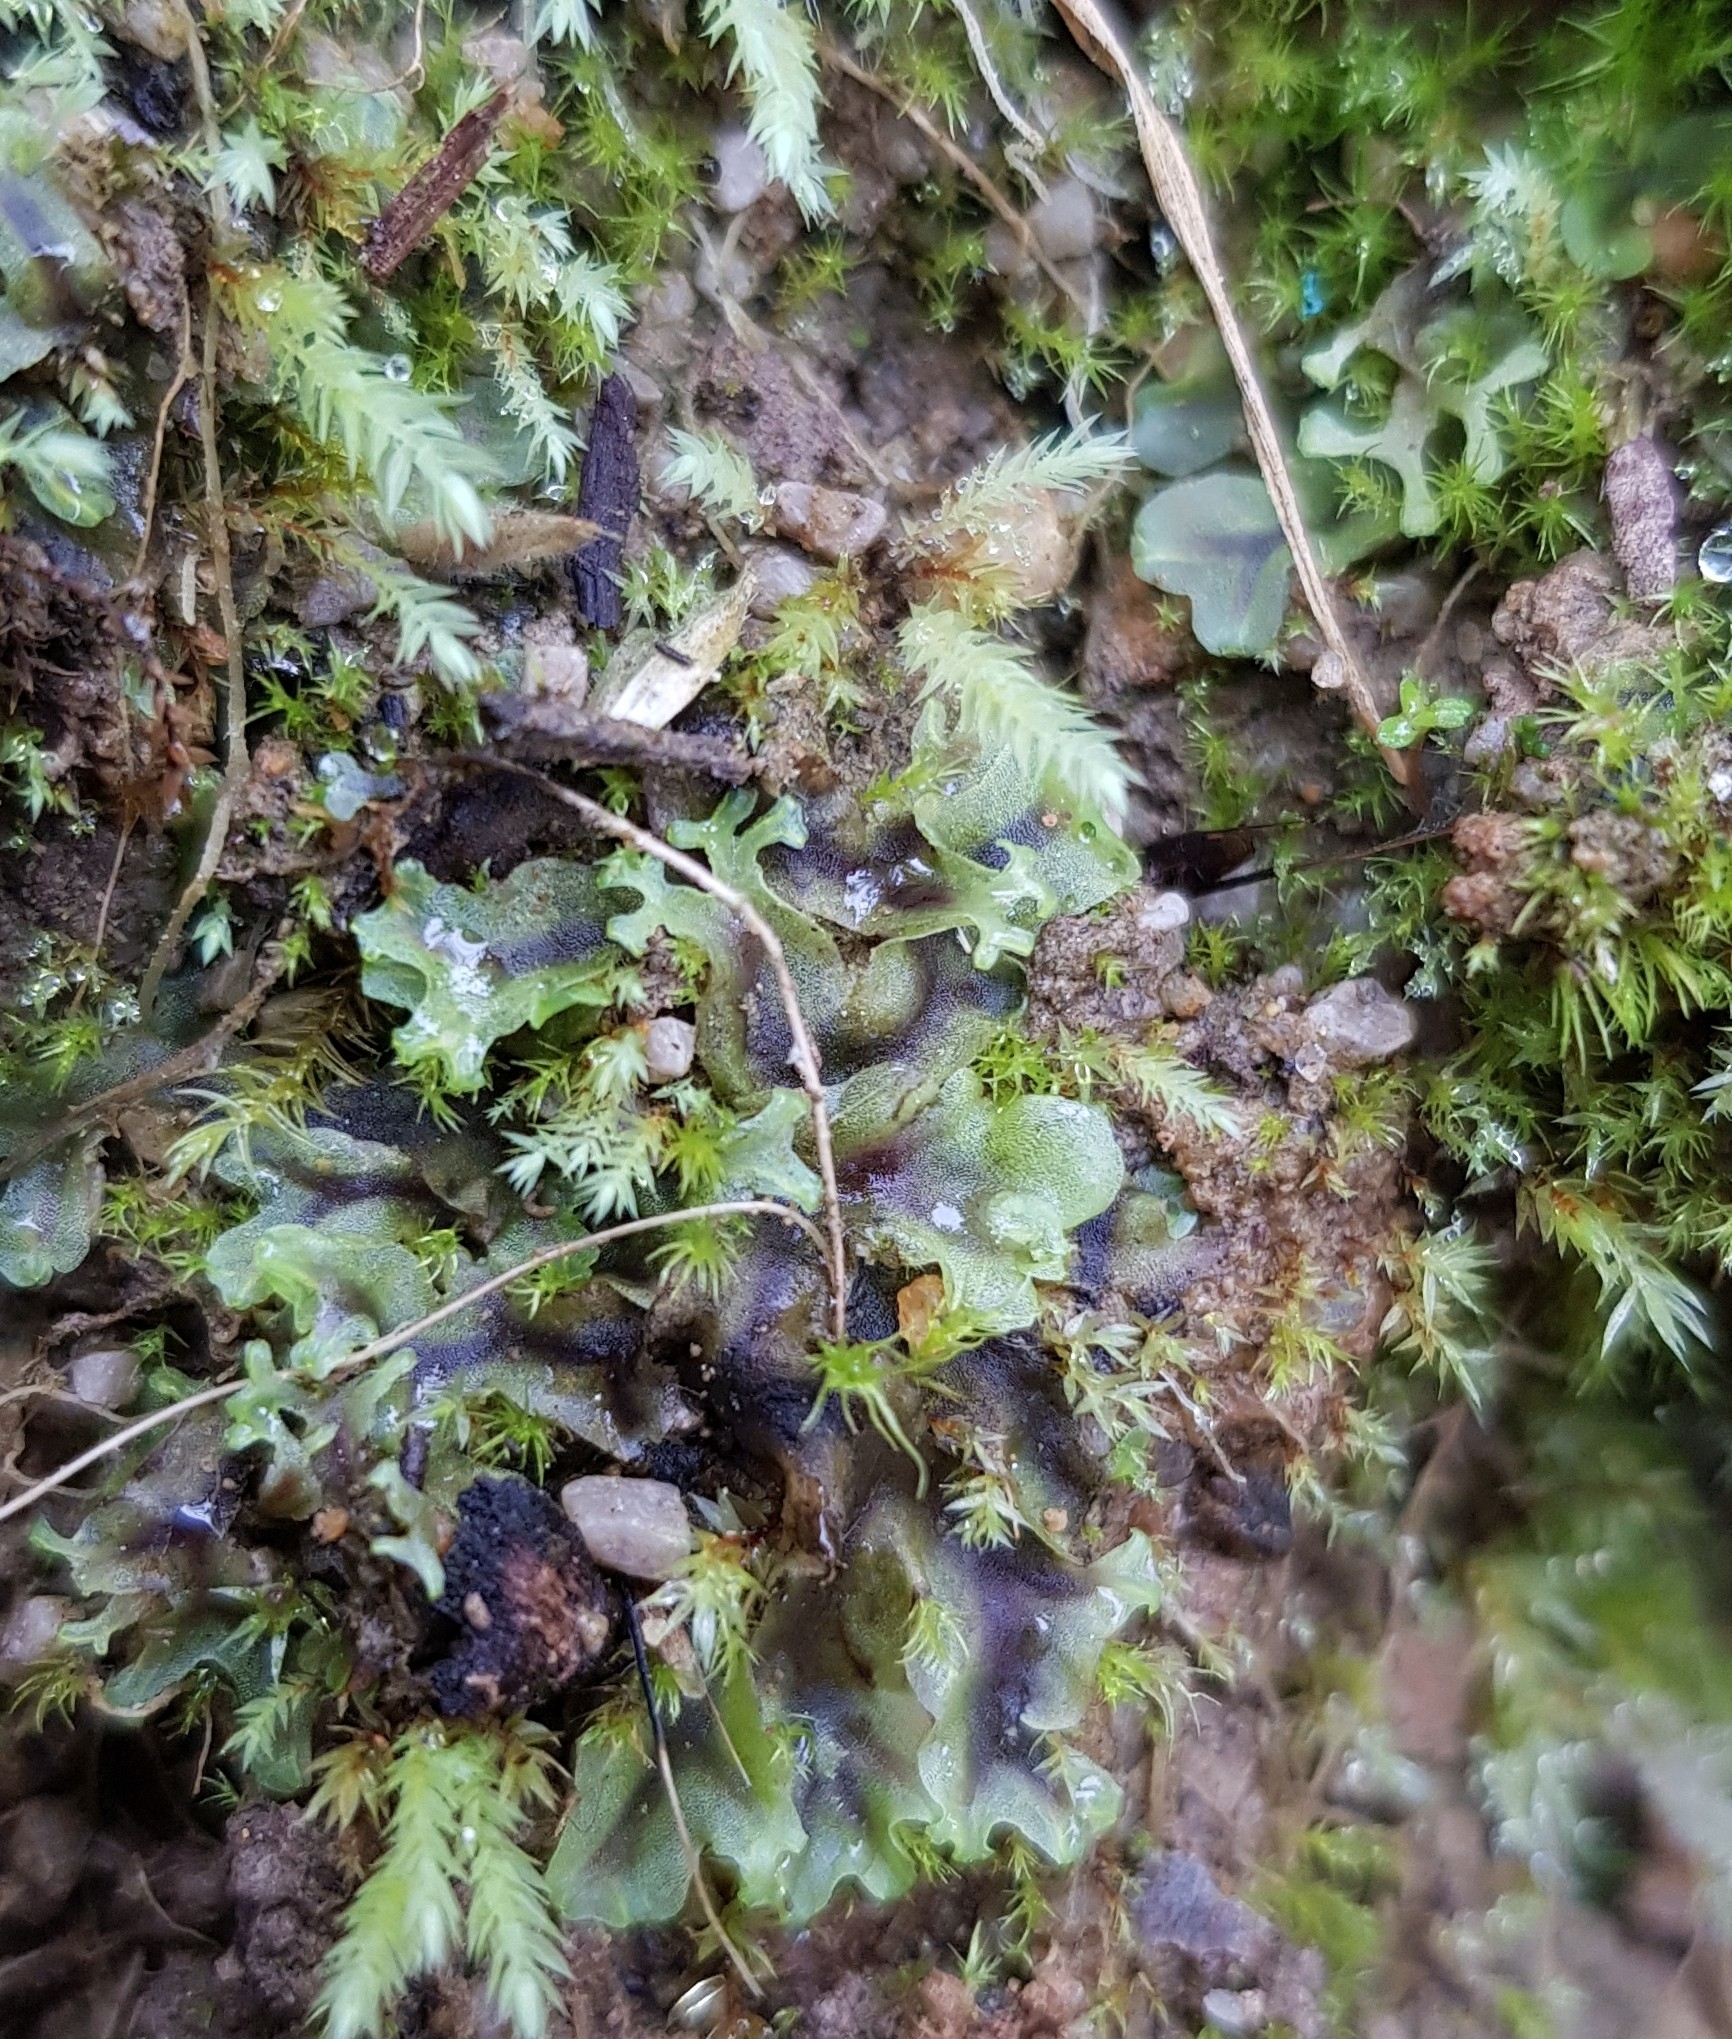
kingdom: Plantae
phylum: Marchantiophyta
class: Jungermanniopsida
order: Pelliales
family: Pelliaceae
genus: Apopellia
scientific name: Apopellia endiviifolia
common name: Endive pellia
